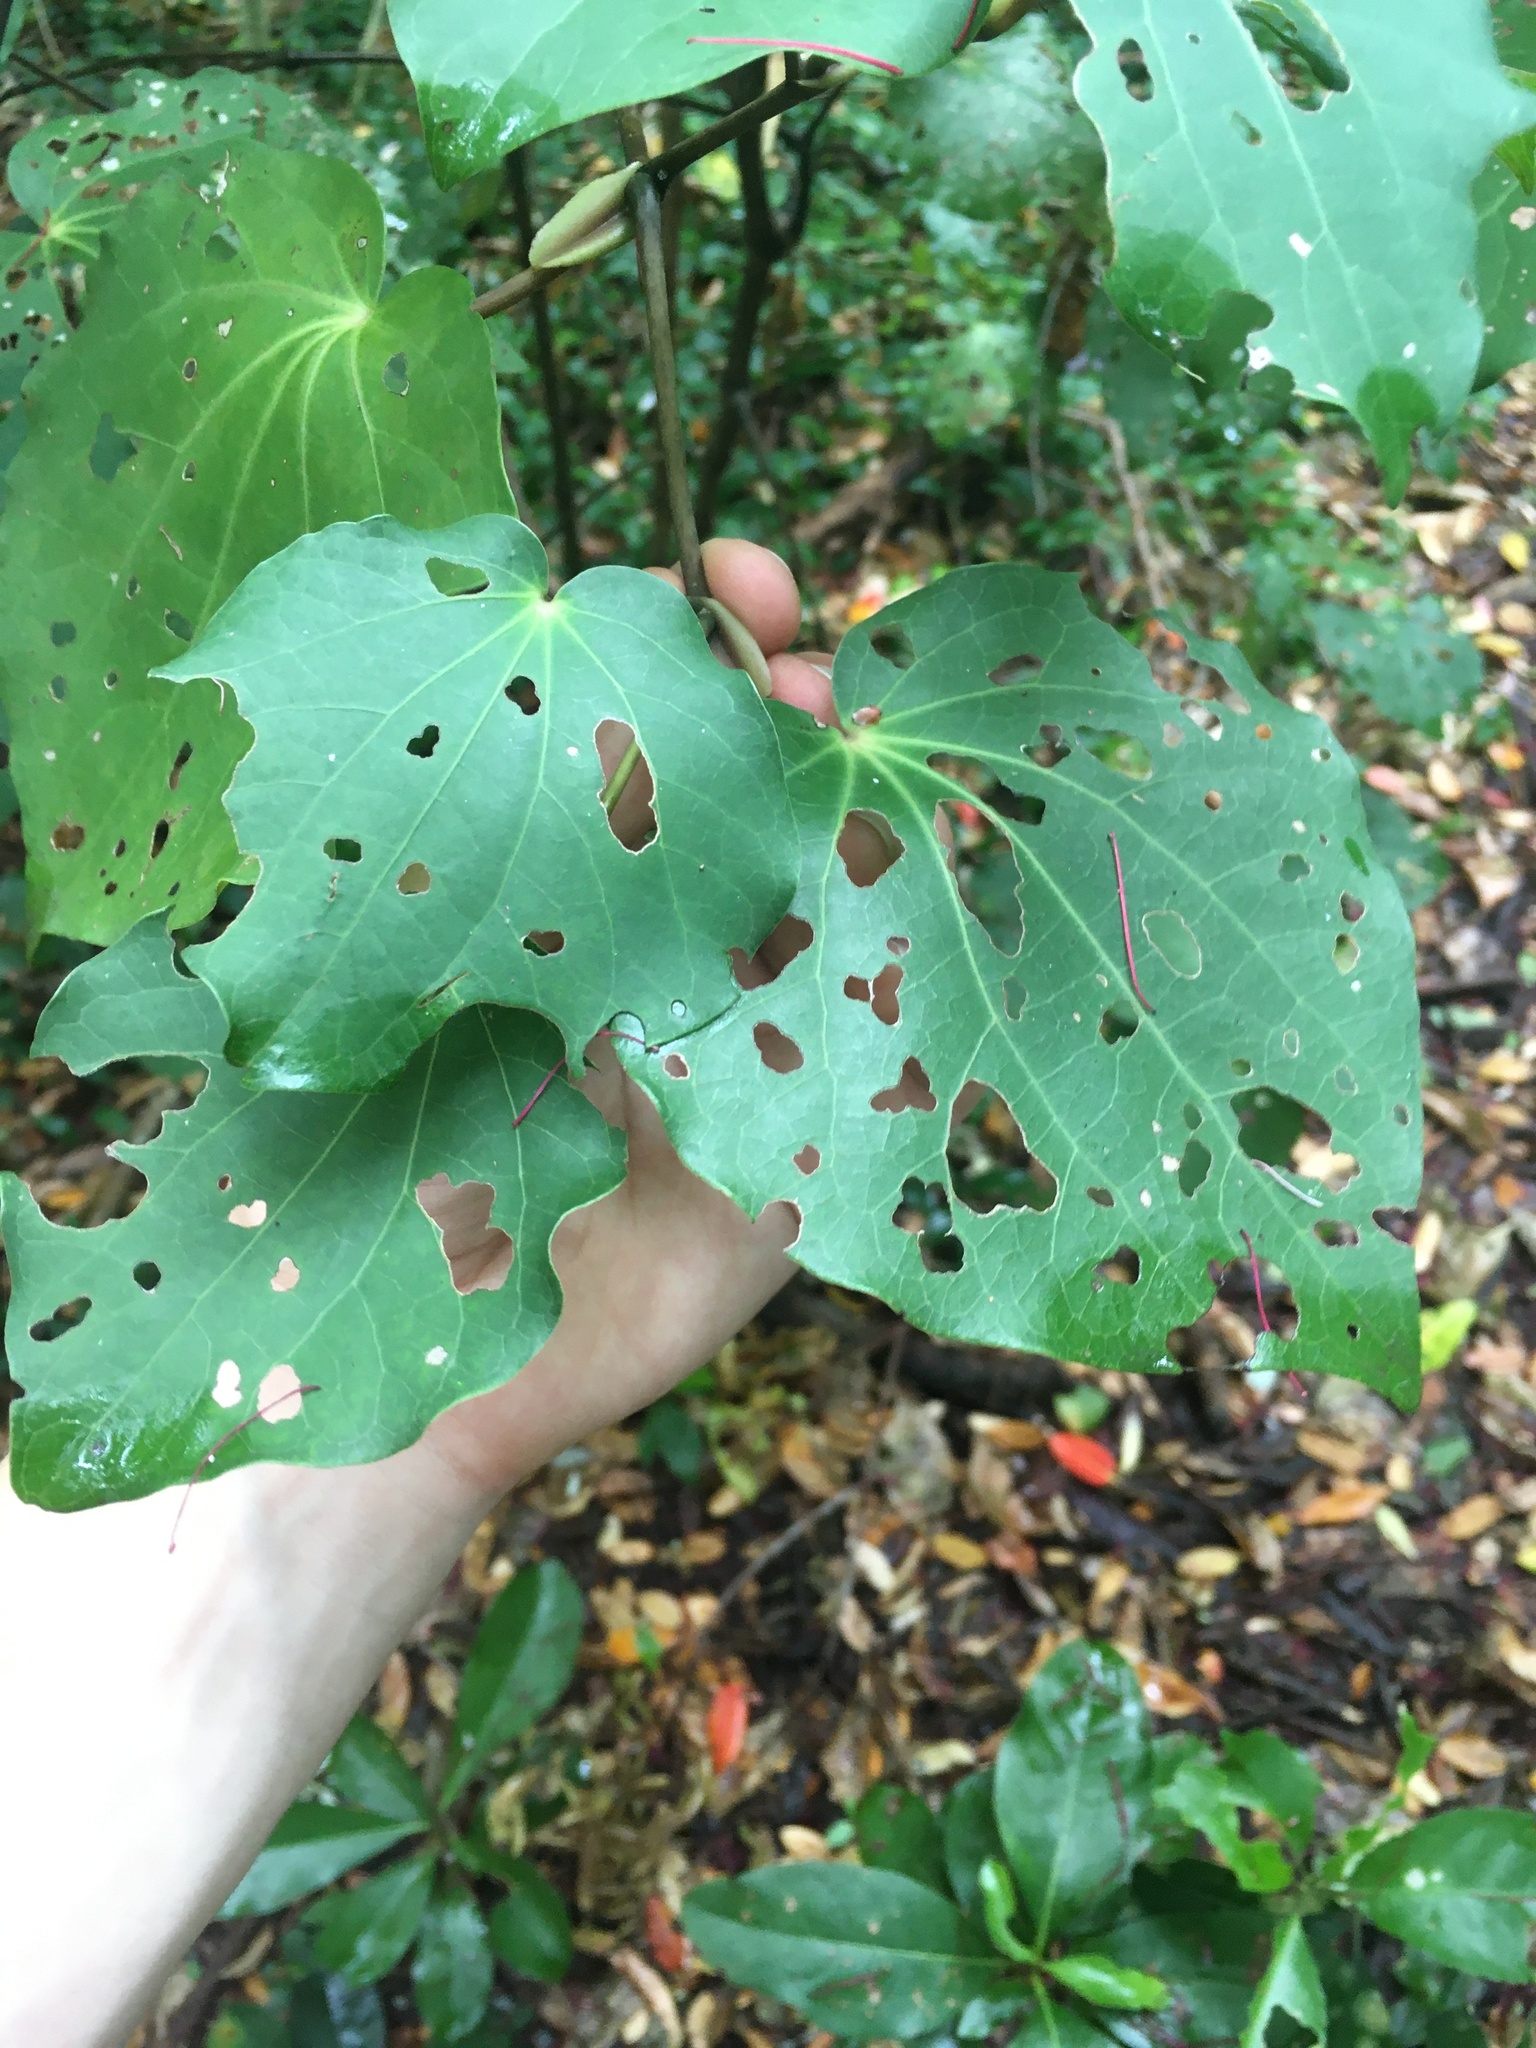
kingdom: Plantae
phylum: Tracheophyta
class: Magnoliopsida
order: Piperales
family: Piperaceae
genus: Macropiper
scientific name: Macropiper excelsum
